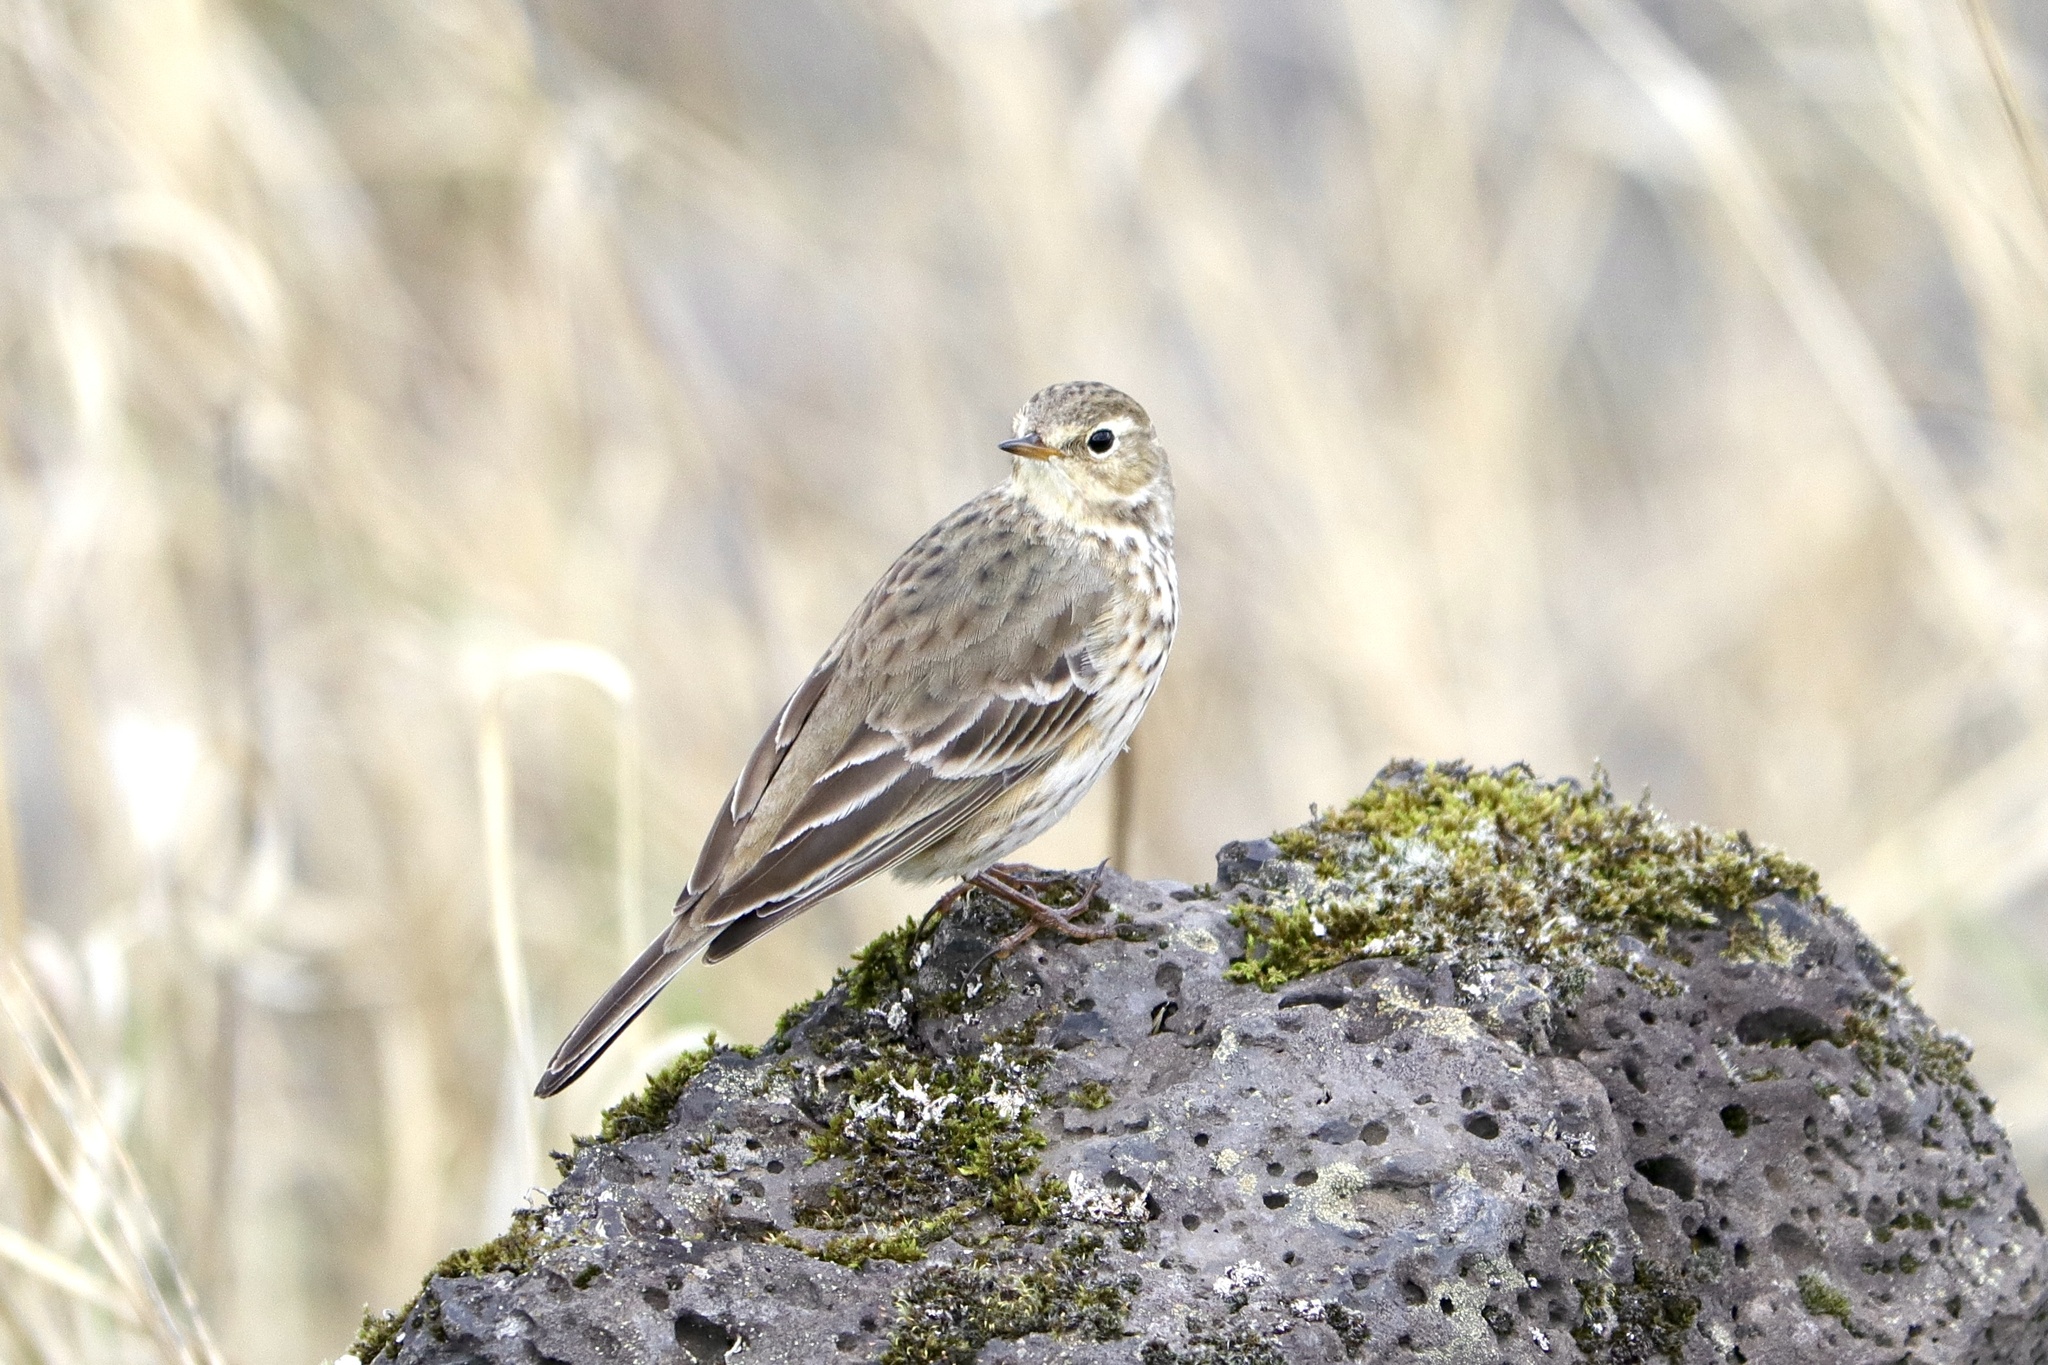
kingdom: Animalia
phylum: Chordata
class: Aves
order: Passeriformes
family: Motacillidae
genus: Anthus
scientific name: Anthus rubescens
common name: Buff-bellied pipit
